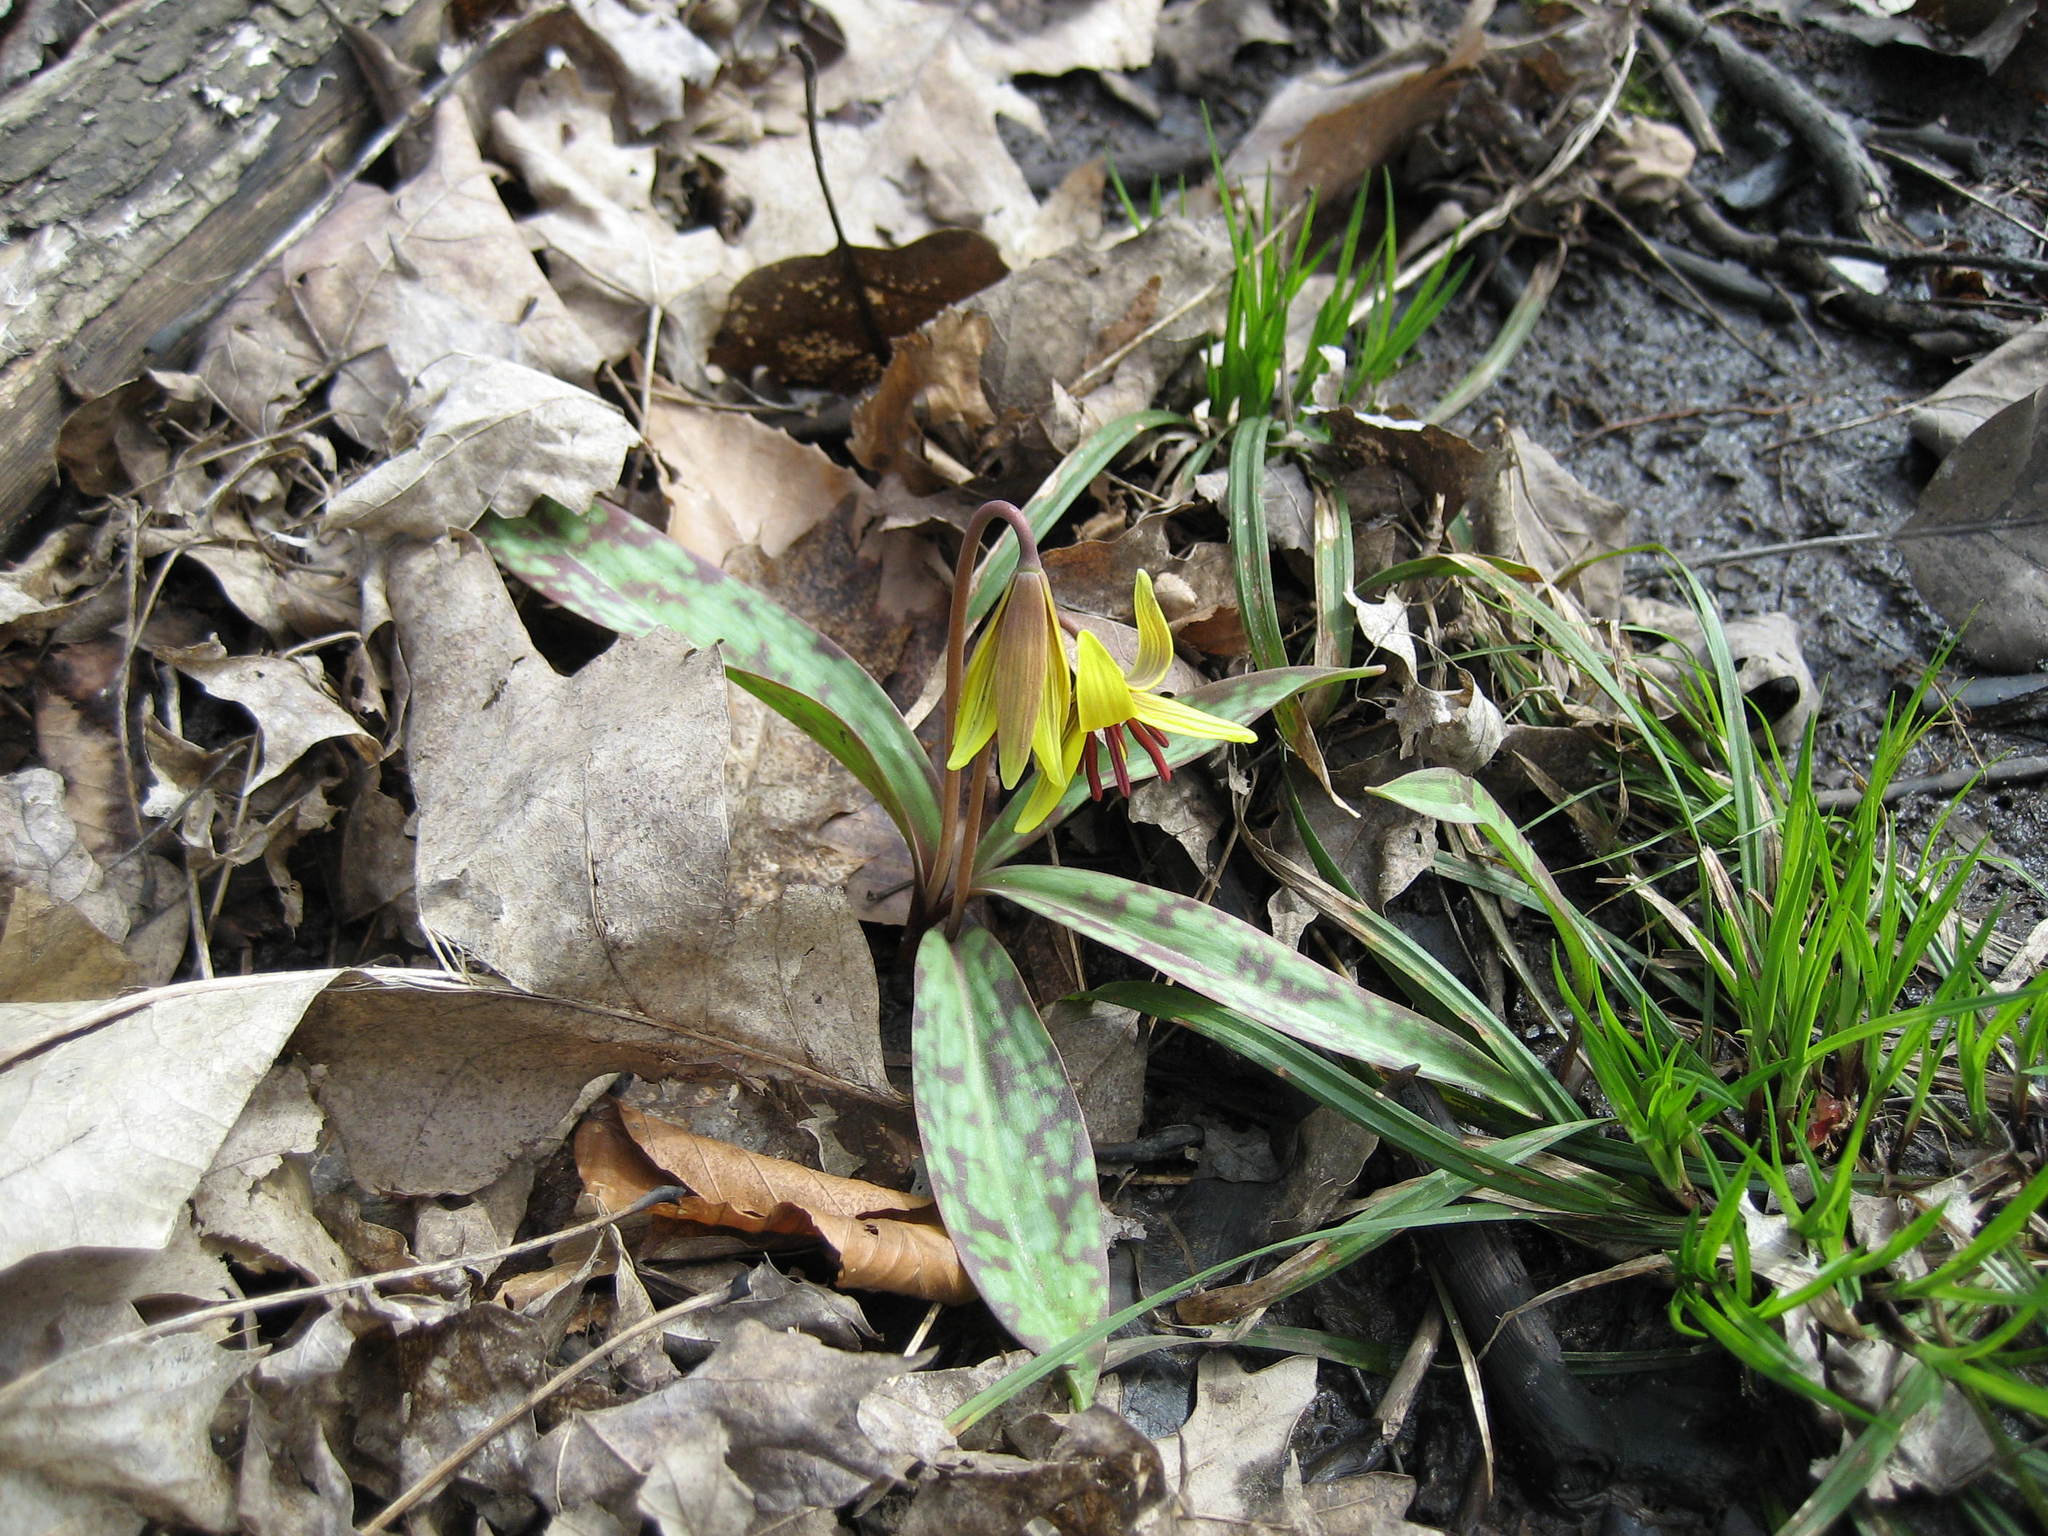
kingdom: Plantae
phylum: Tracheophyta
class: Liliopsida
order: Liliales
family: Liliaceae
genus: Erythronium
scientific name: Erythronium americanum
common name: Yellow adder's-tongue
